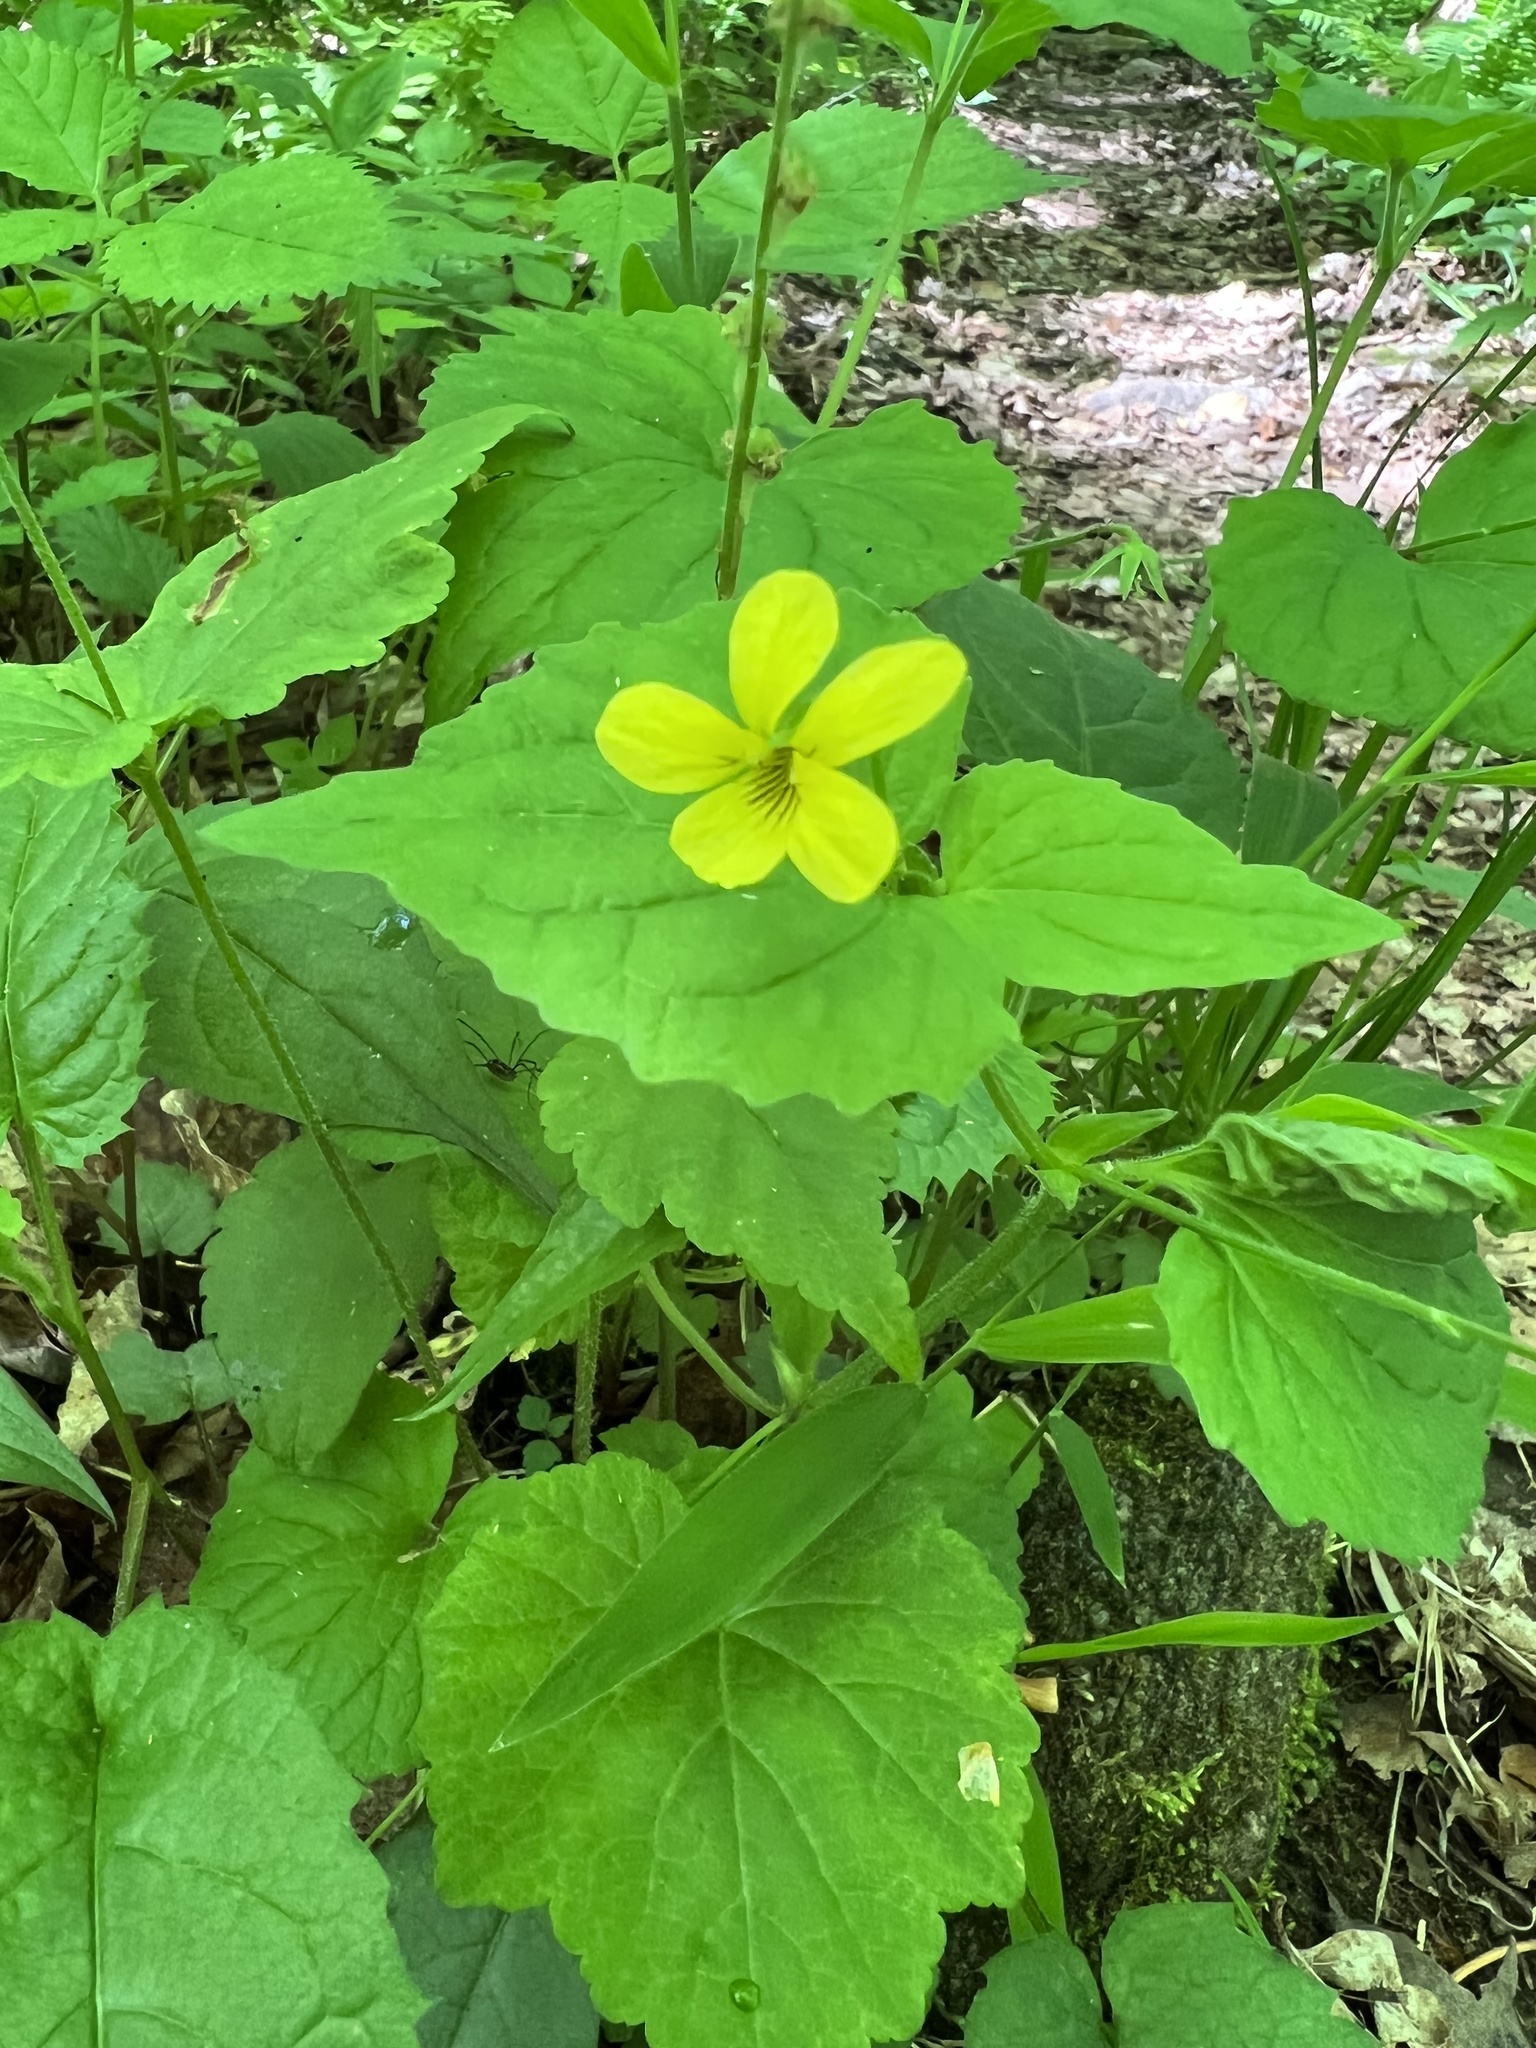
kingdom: Plantae
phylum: Tracheophyta
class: Magnoliopsida
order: Malpighiales
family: Violaceae
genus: Viola
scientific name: Viola eriocarpa
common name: Smooth yellow violet
